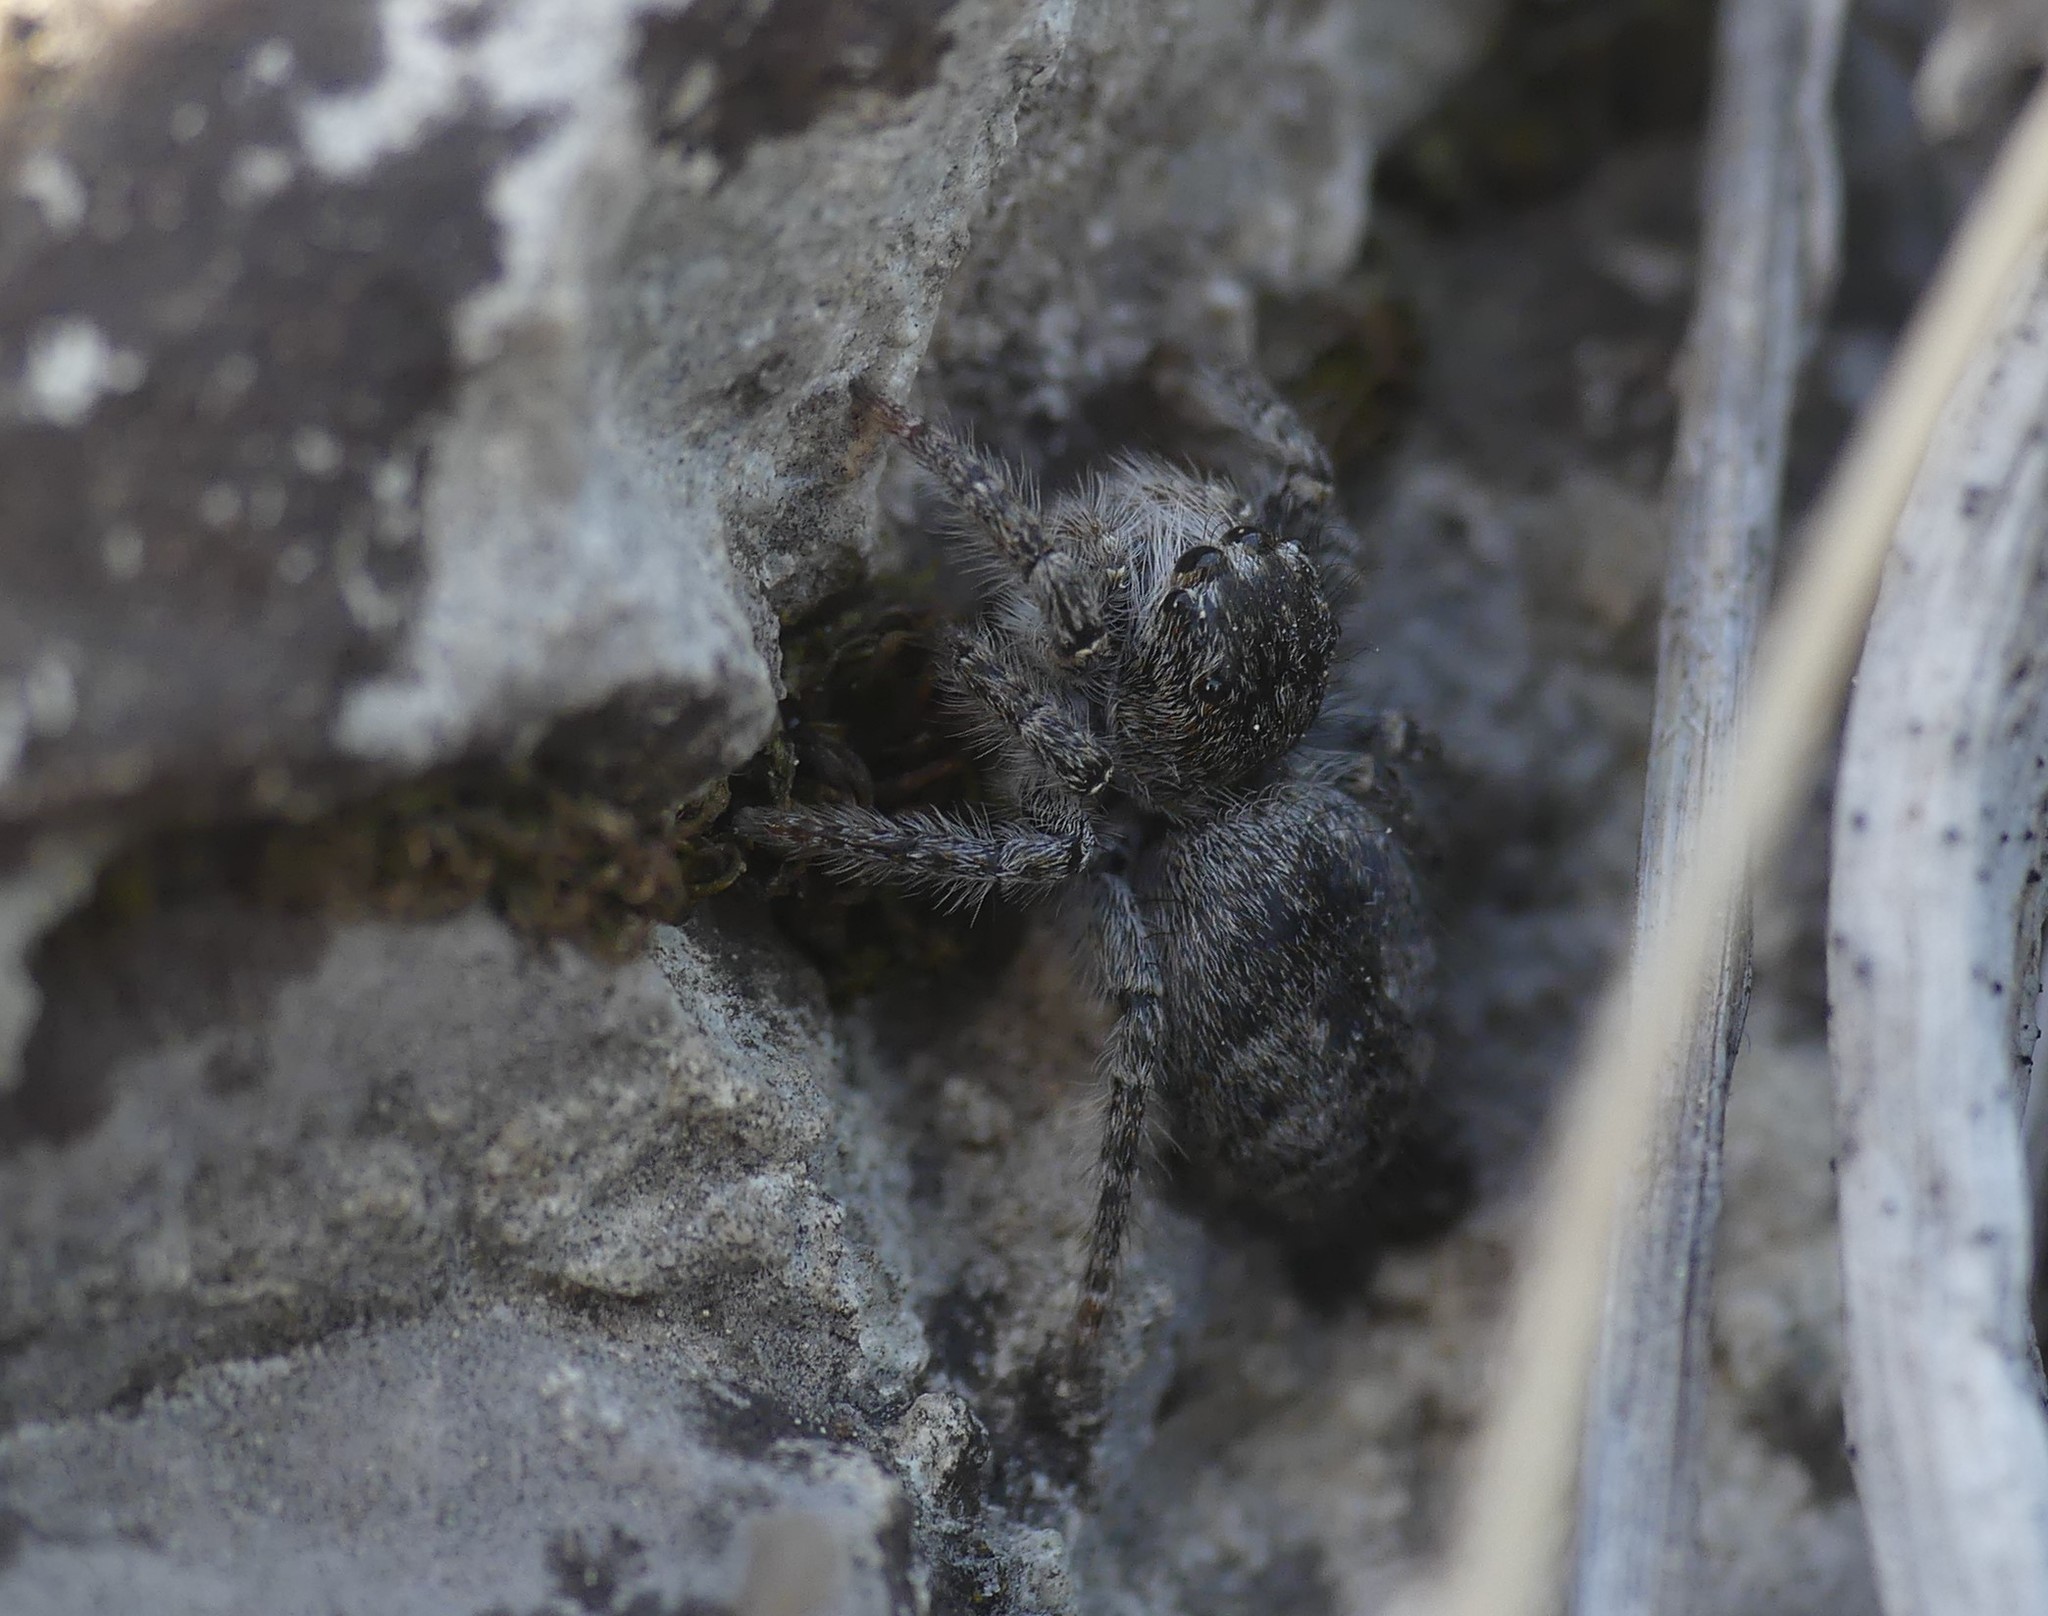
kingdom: Animalia
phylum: Arthropoda
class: Arachnida
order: Araneae
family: Salticidae
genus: Philaeus
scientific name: Philaeus chrysops
